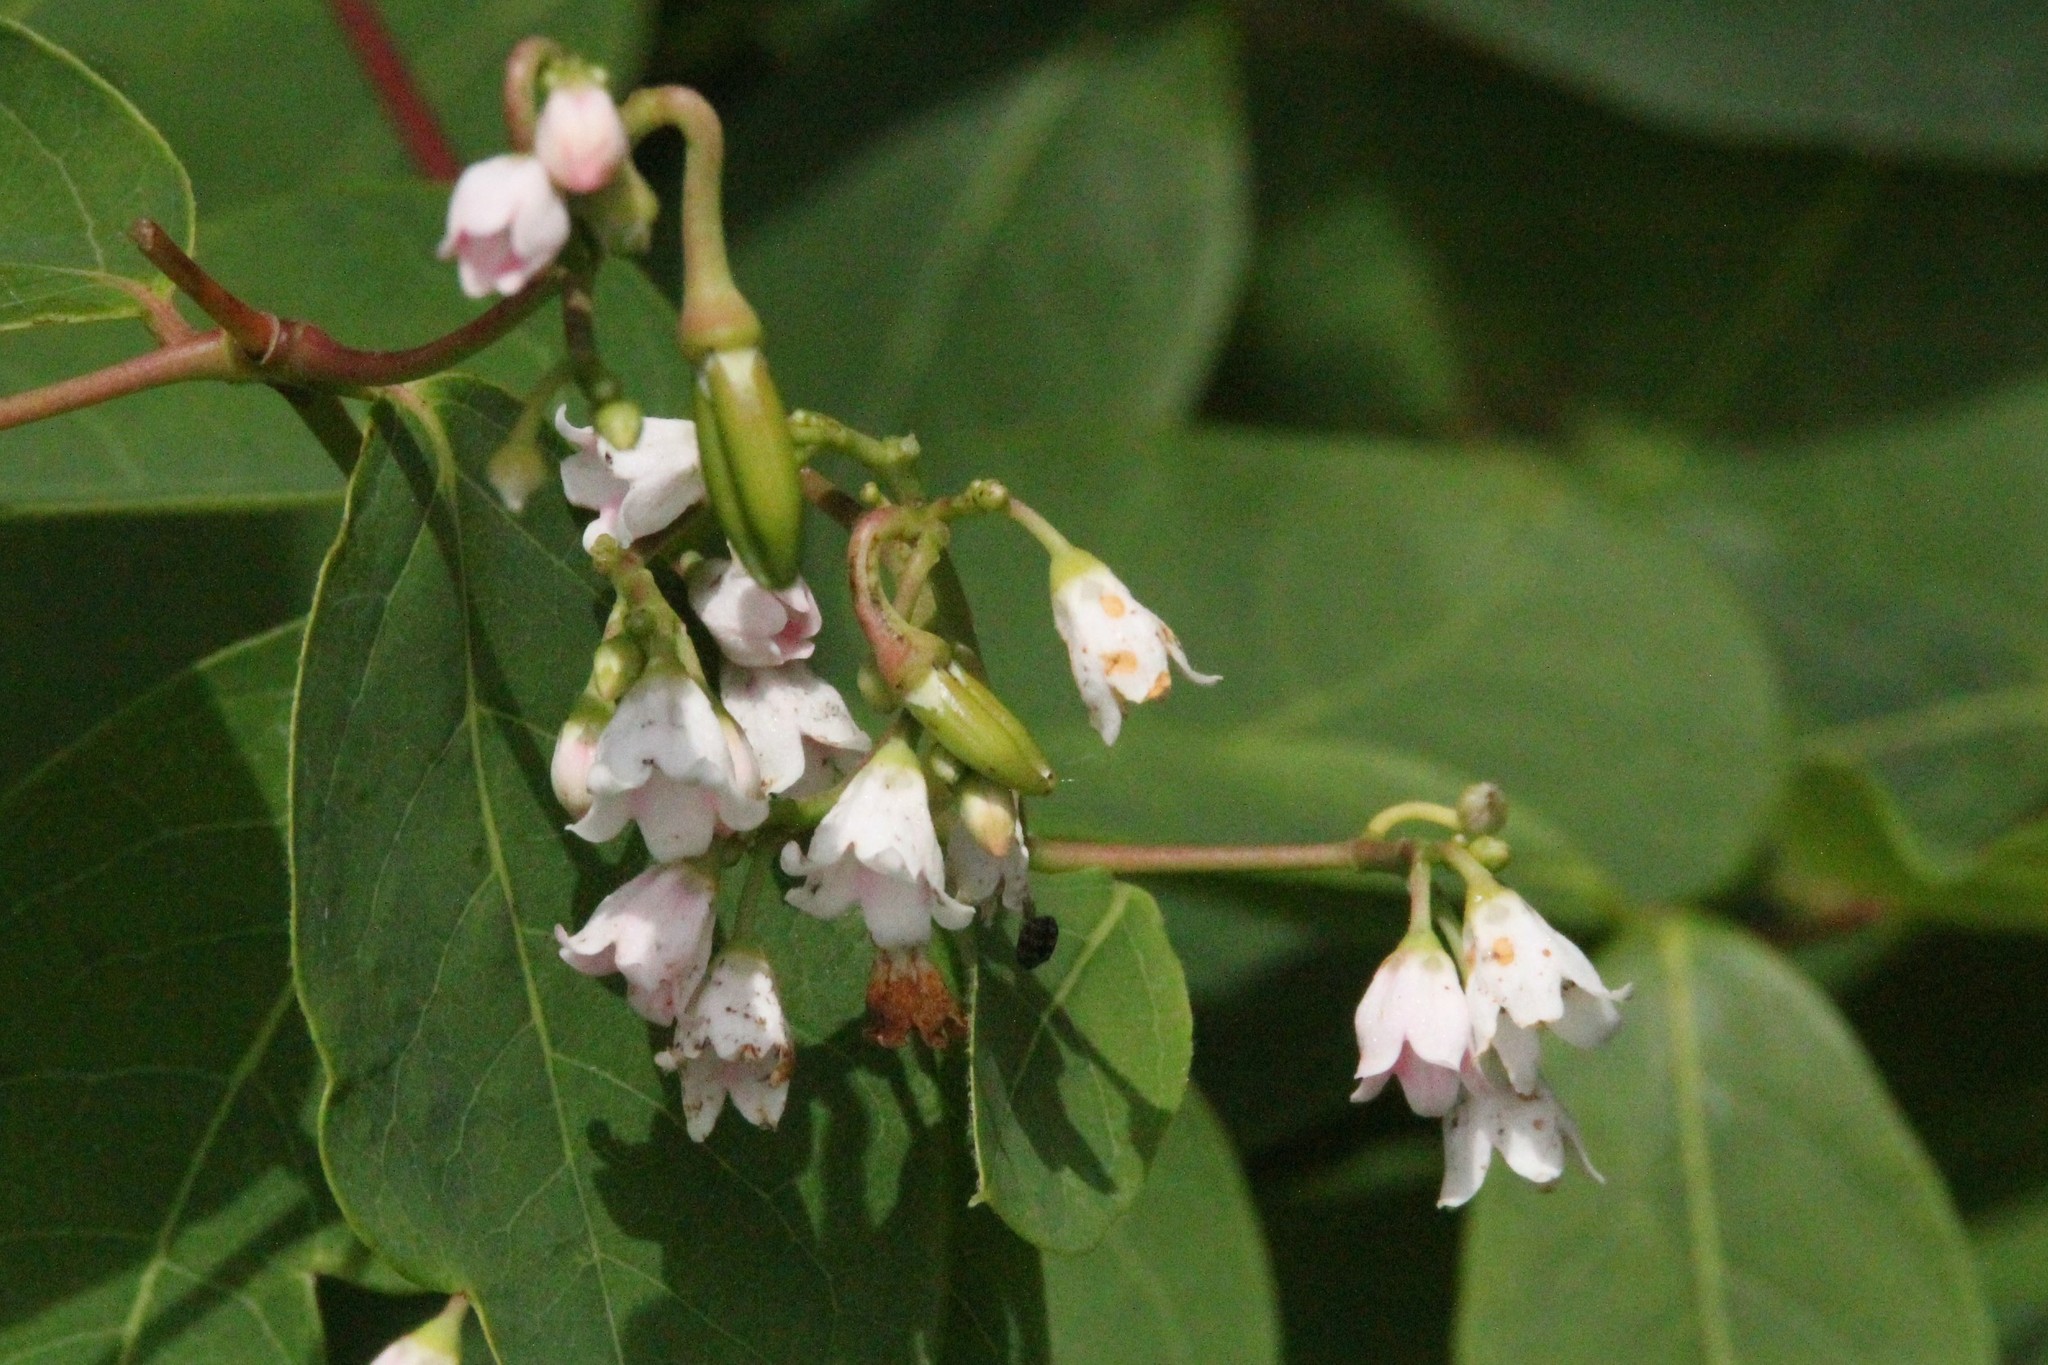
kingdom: Plantae
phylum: Tracheophyta
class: Magnoliopsida
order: Gentianales
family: Apocynaceae
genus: Apocynum
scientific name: Apocynum androsaemifolium
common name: Spreading dogbane
